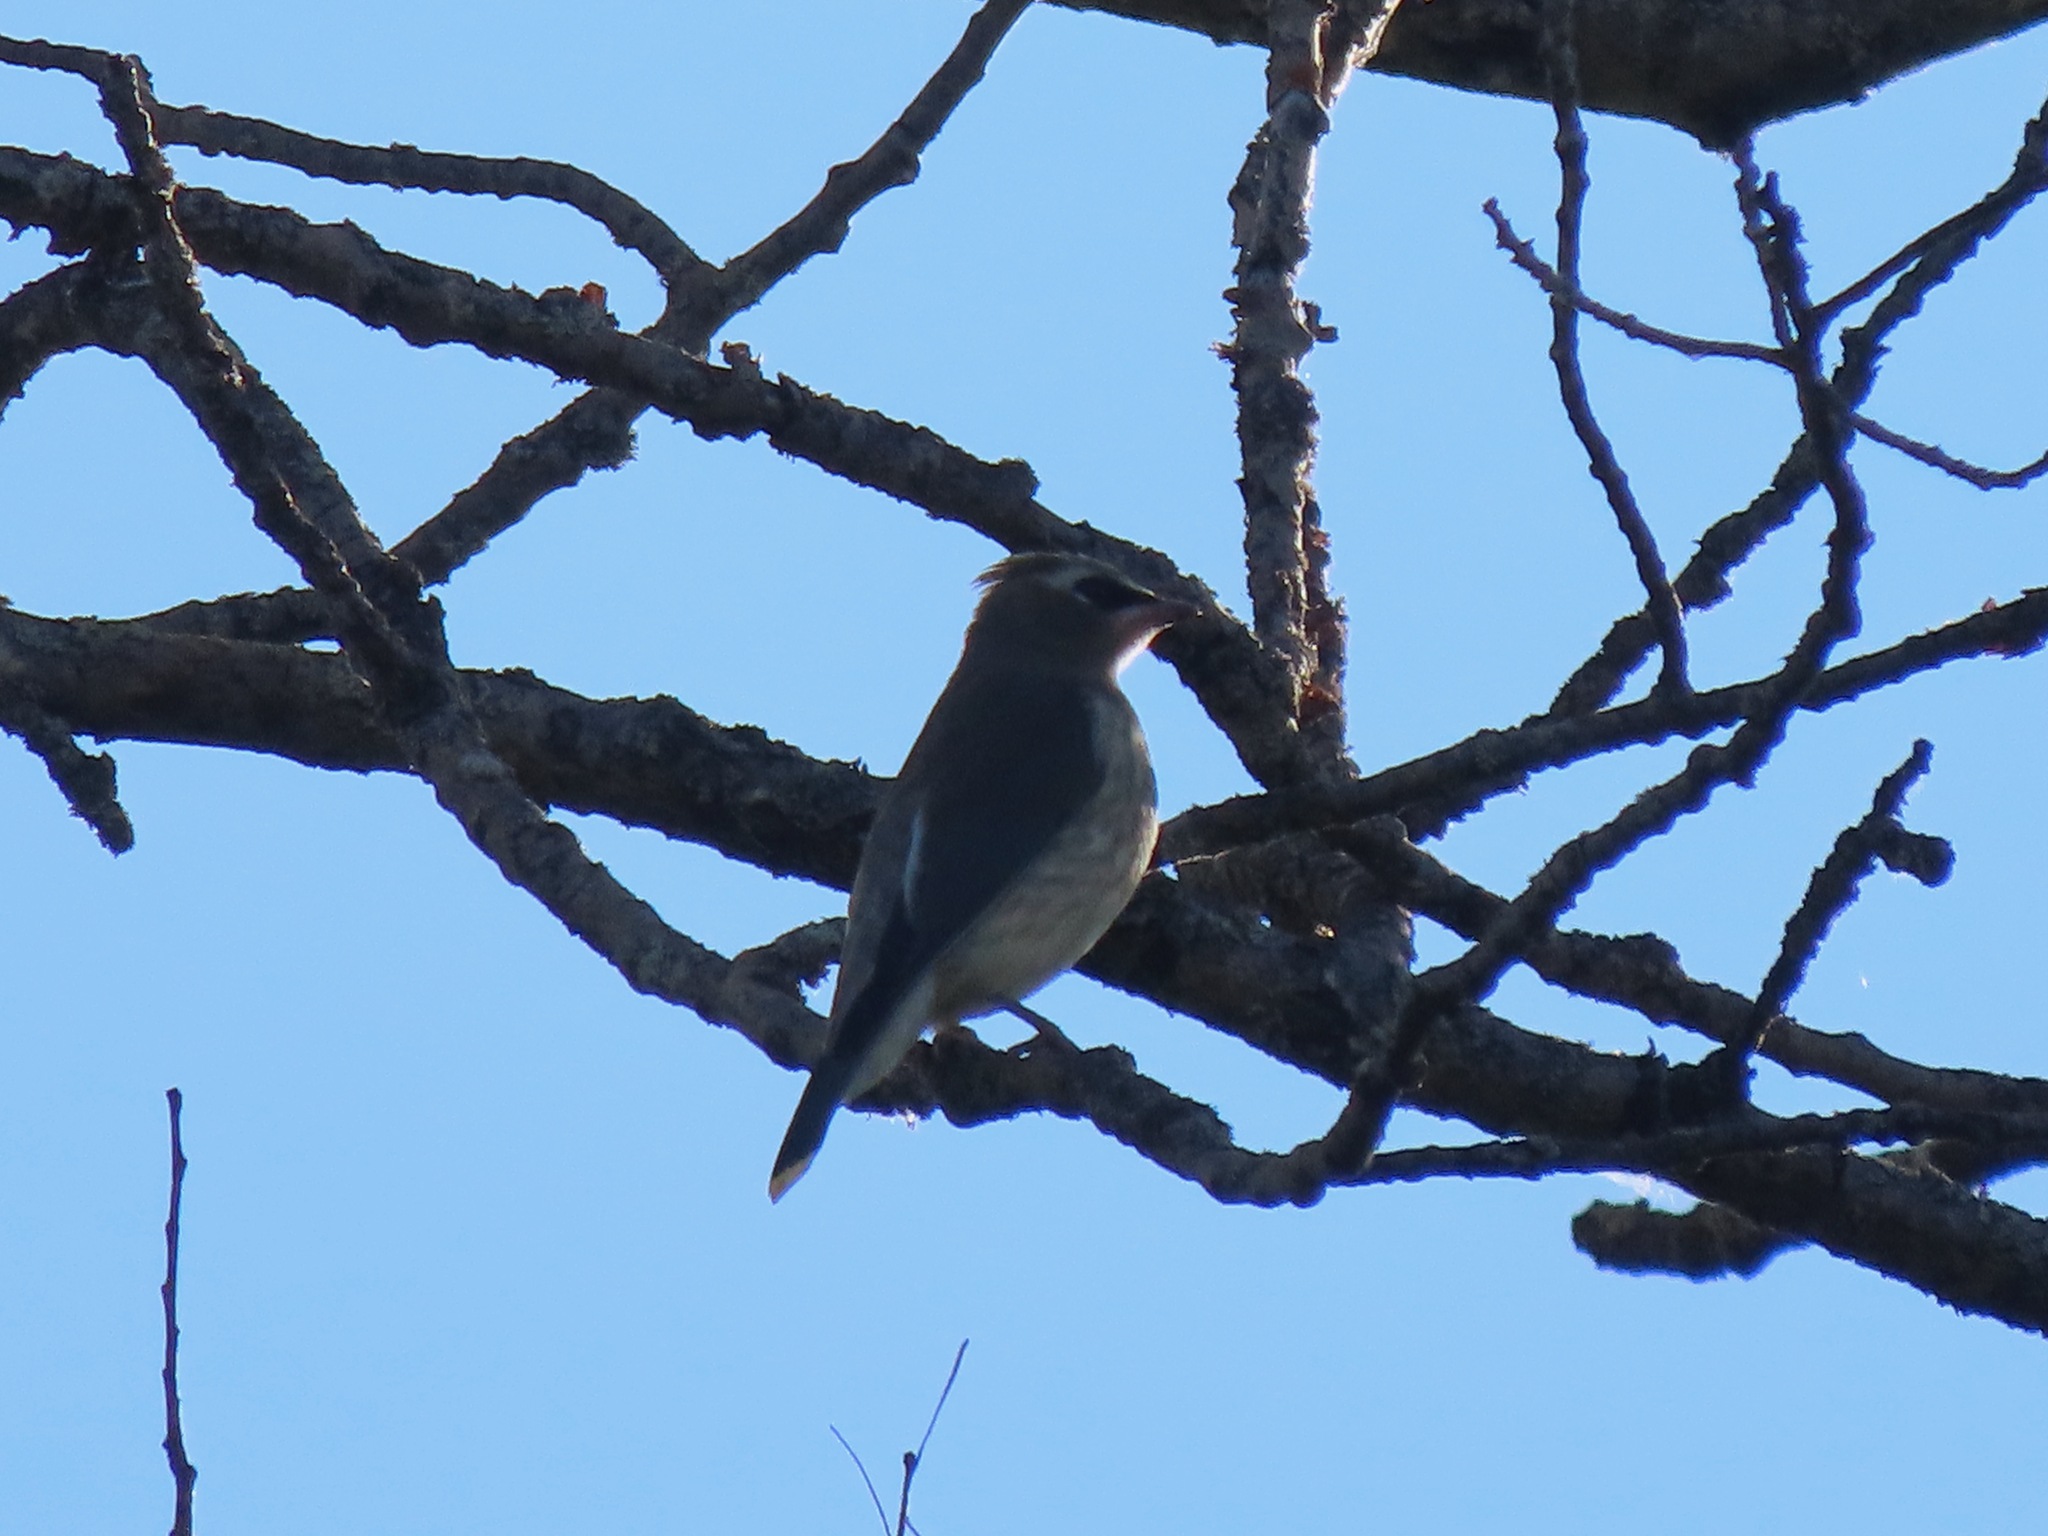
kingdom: Animalia
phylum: Chordata
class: Aves
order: Passeriformes
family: Bombycillidae
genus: Bombycilla
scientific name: Bombycilla cedrorum
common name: Cedar waxwing
